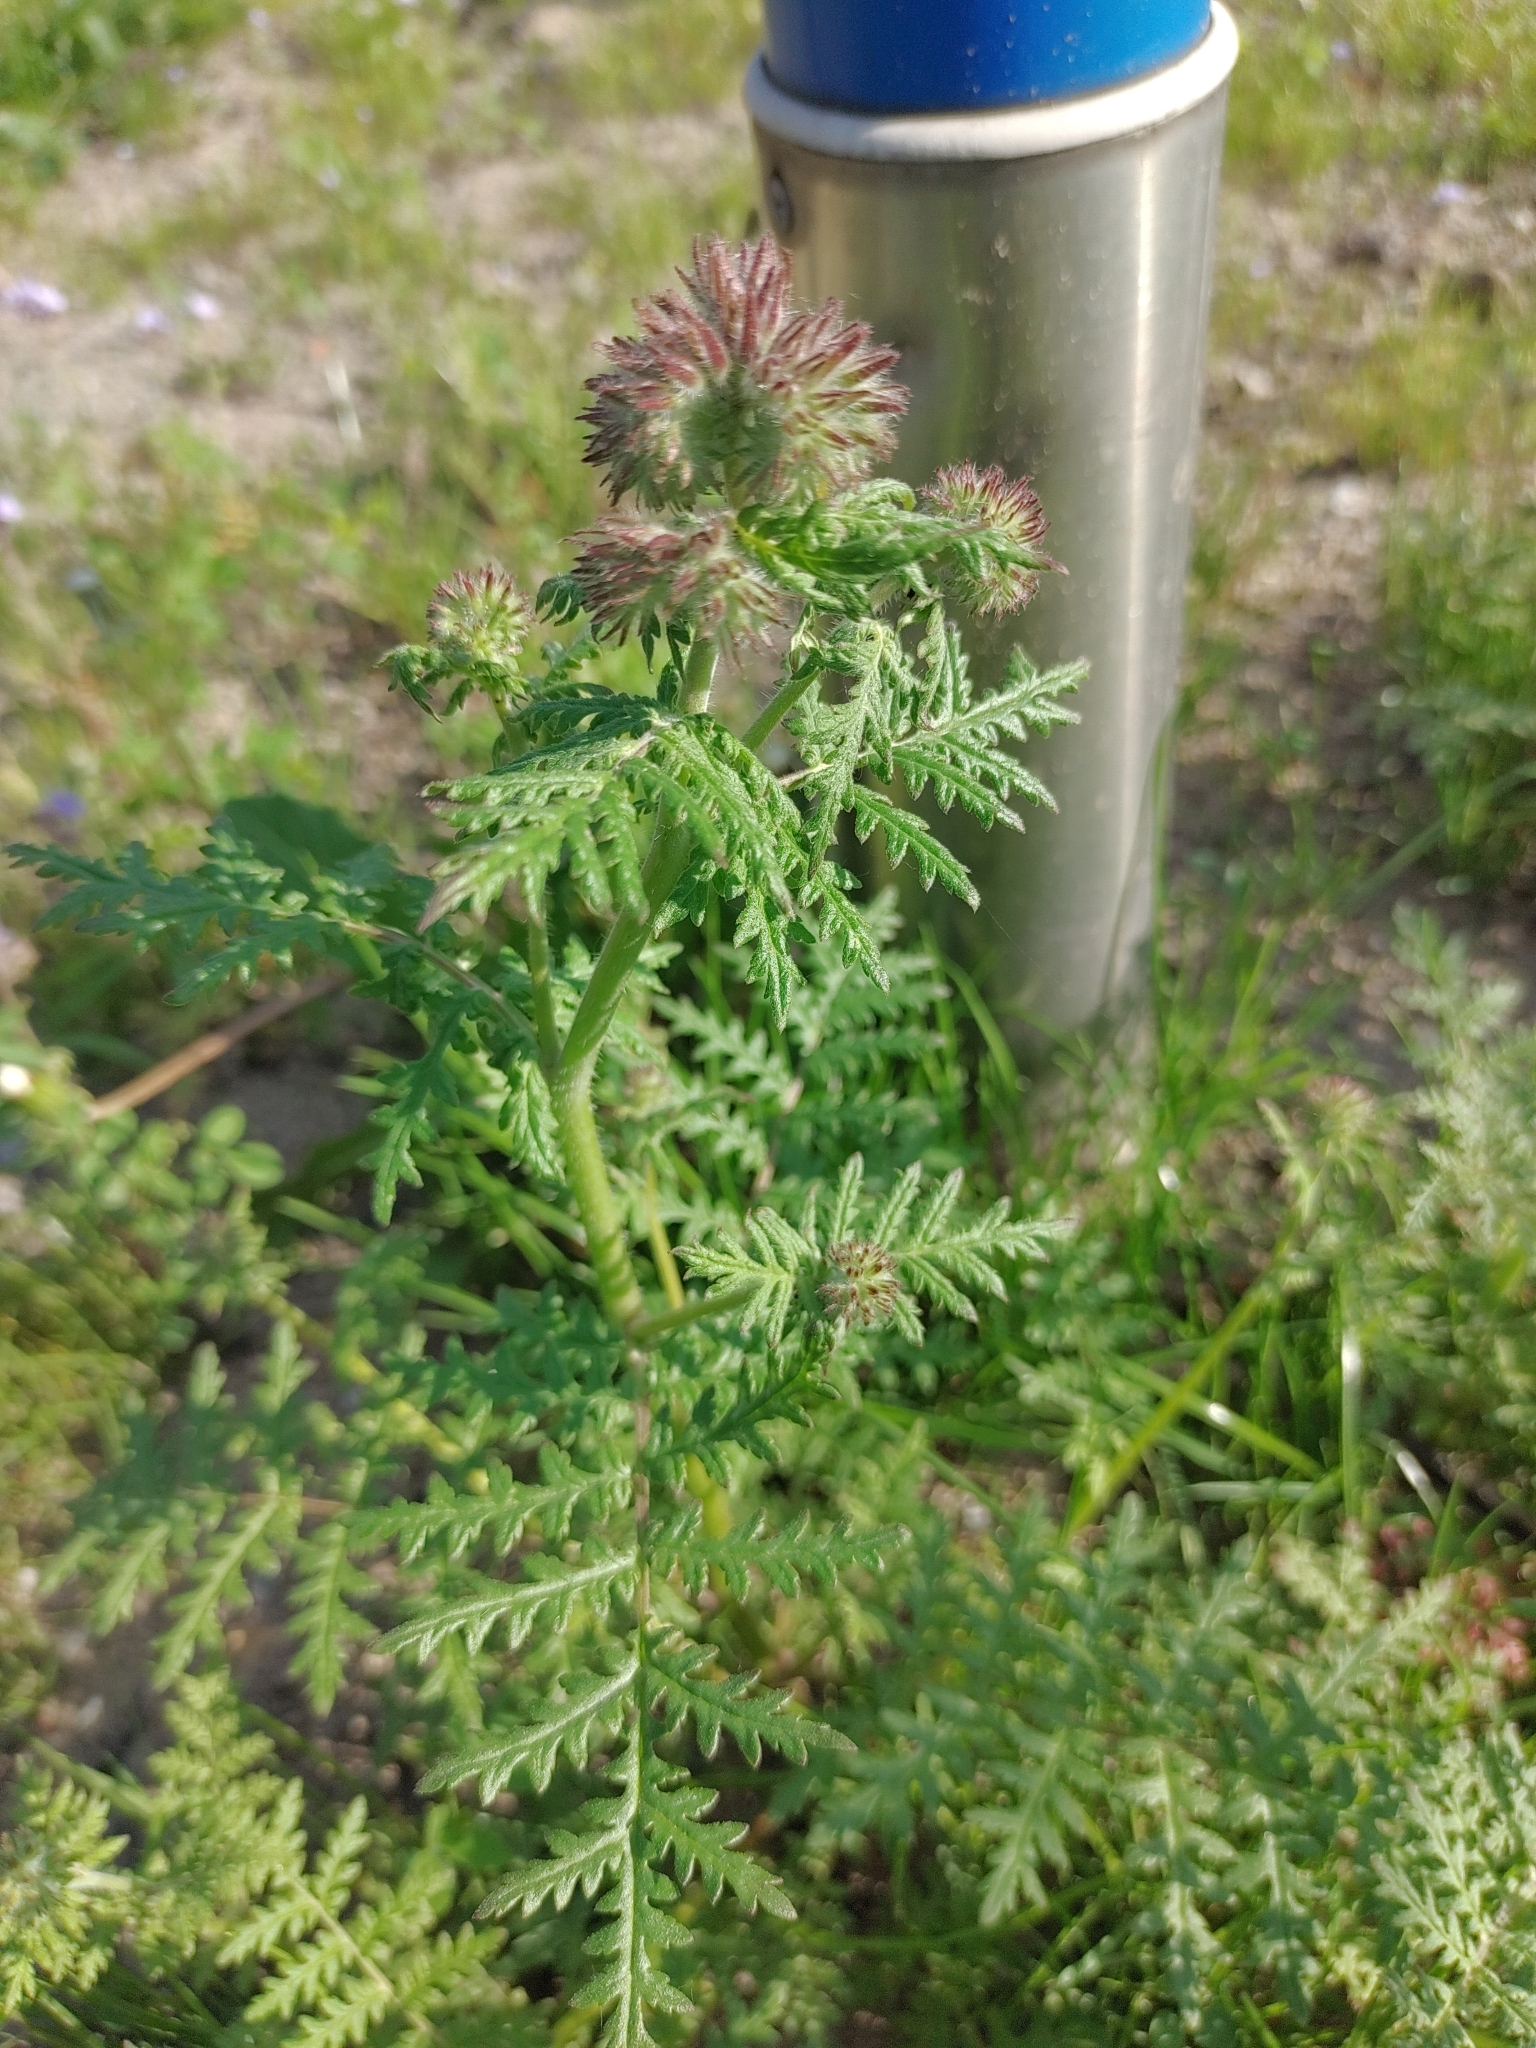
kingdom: Plantae
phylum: Tracheophyta
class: Magnoliopsida
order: Boraginales
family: Hydrophyllaceae
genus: Phacelia
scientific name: Phacelia tanacetifolia
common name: Phacelia
